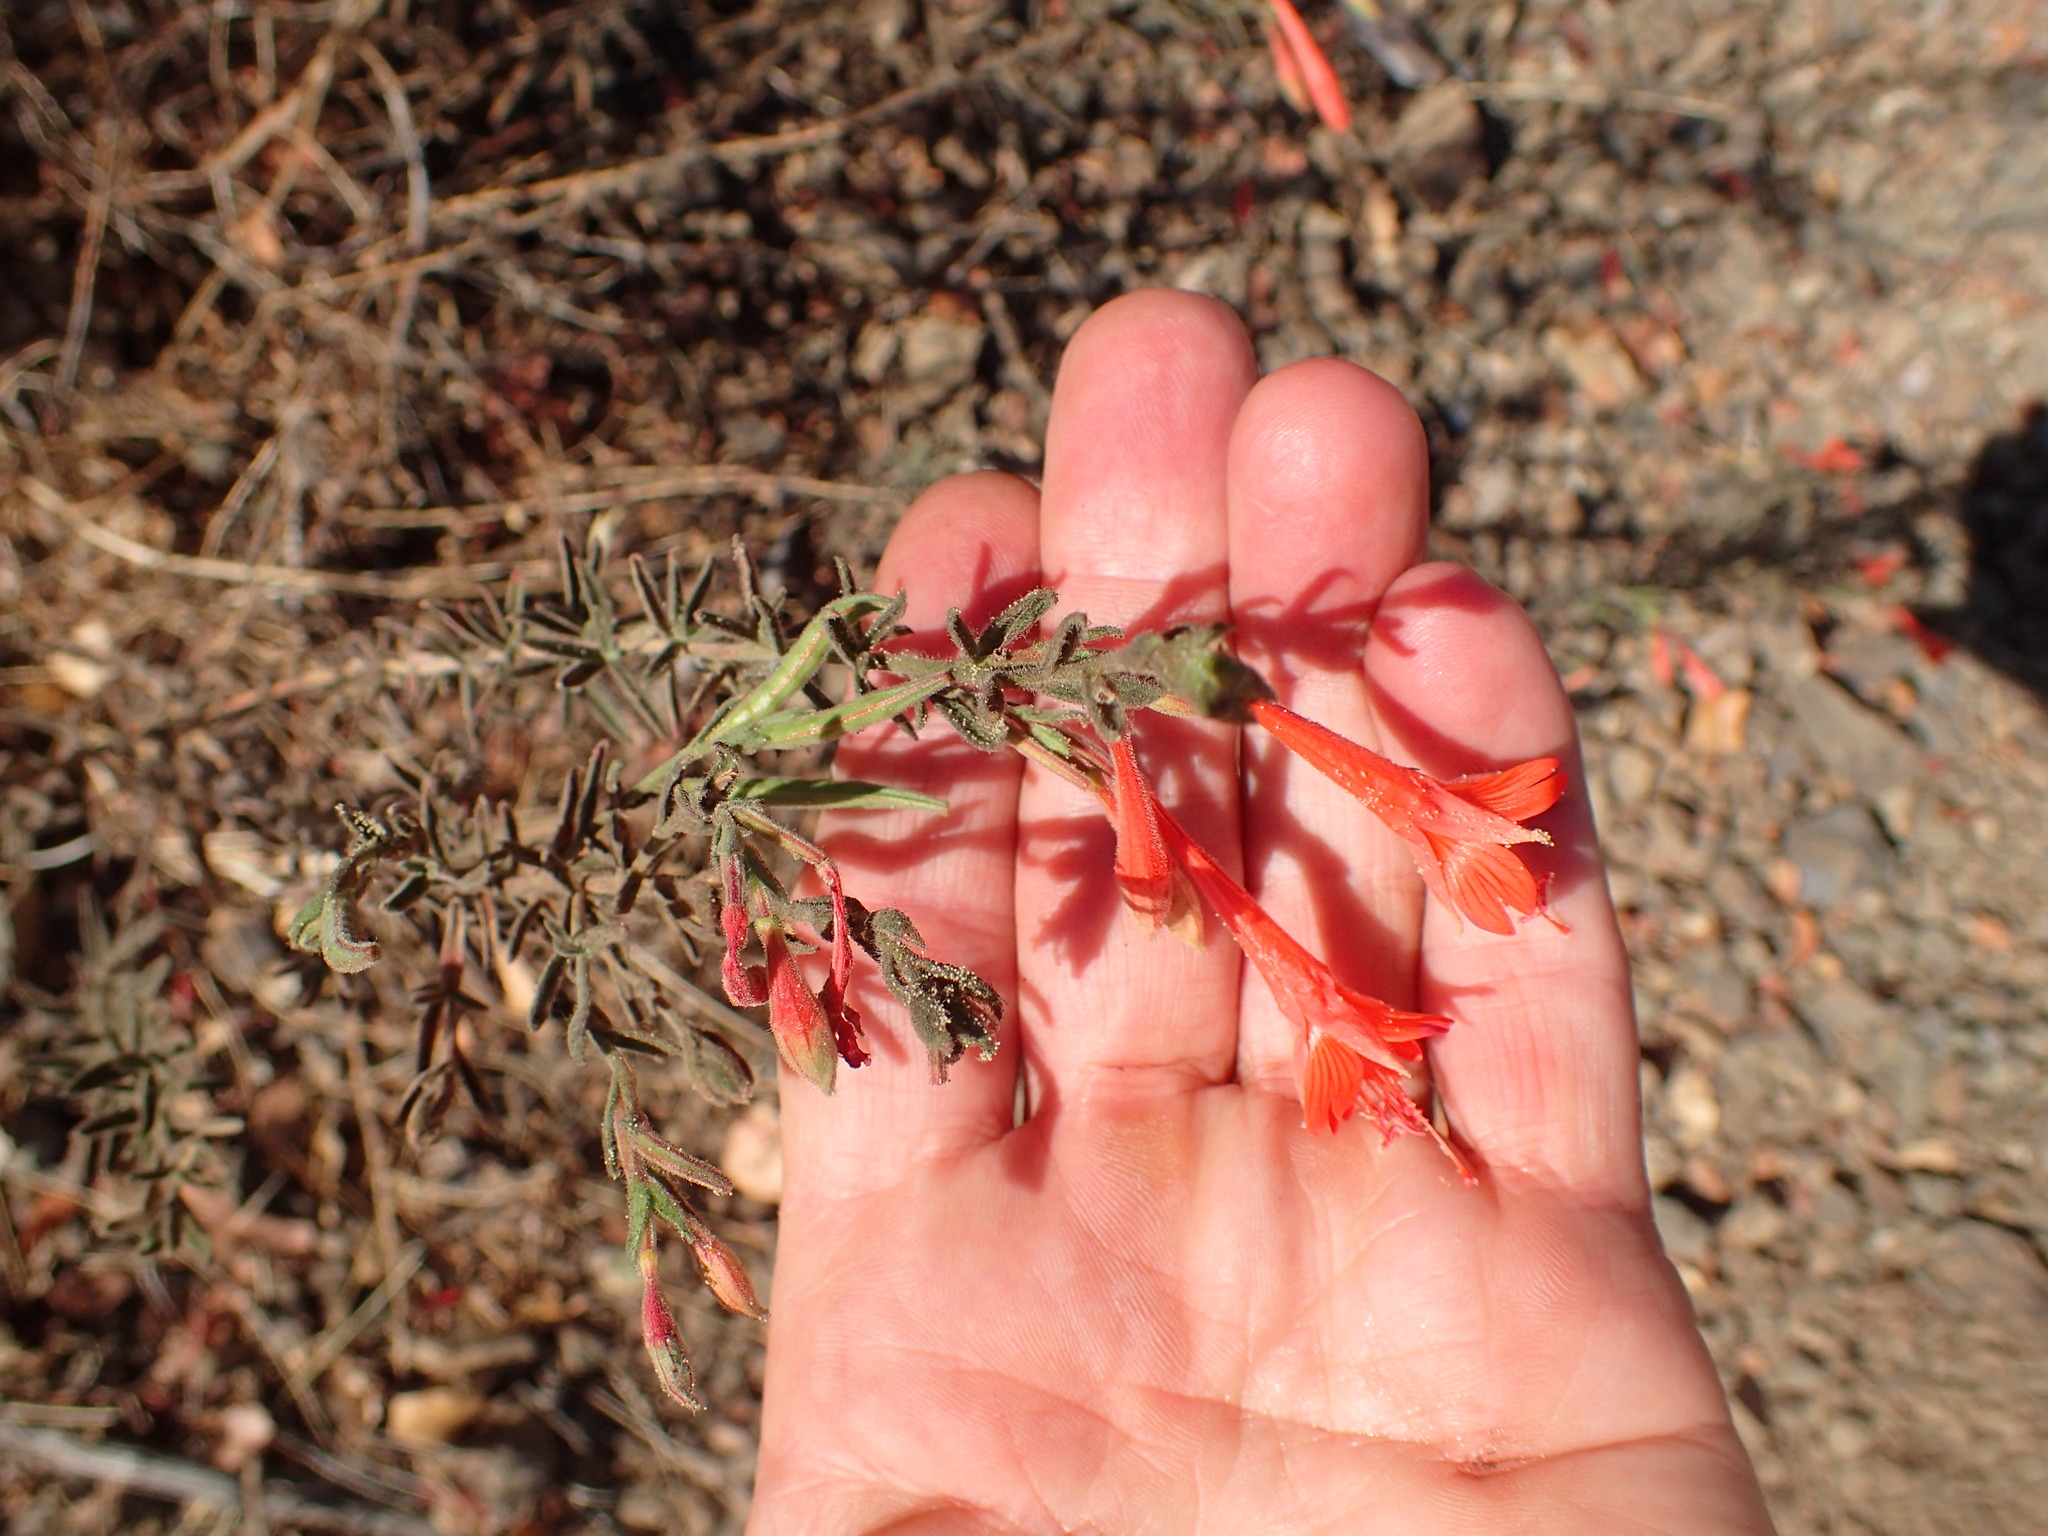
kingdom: Plantae
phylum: Tracheophyta
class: Magnoliopsida
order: Myrtales
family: Onagraceae
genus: Epilobium
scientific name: Epilobium canum
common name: California-fuchsia
